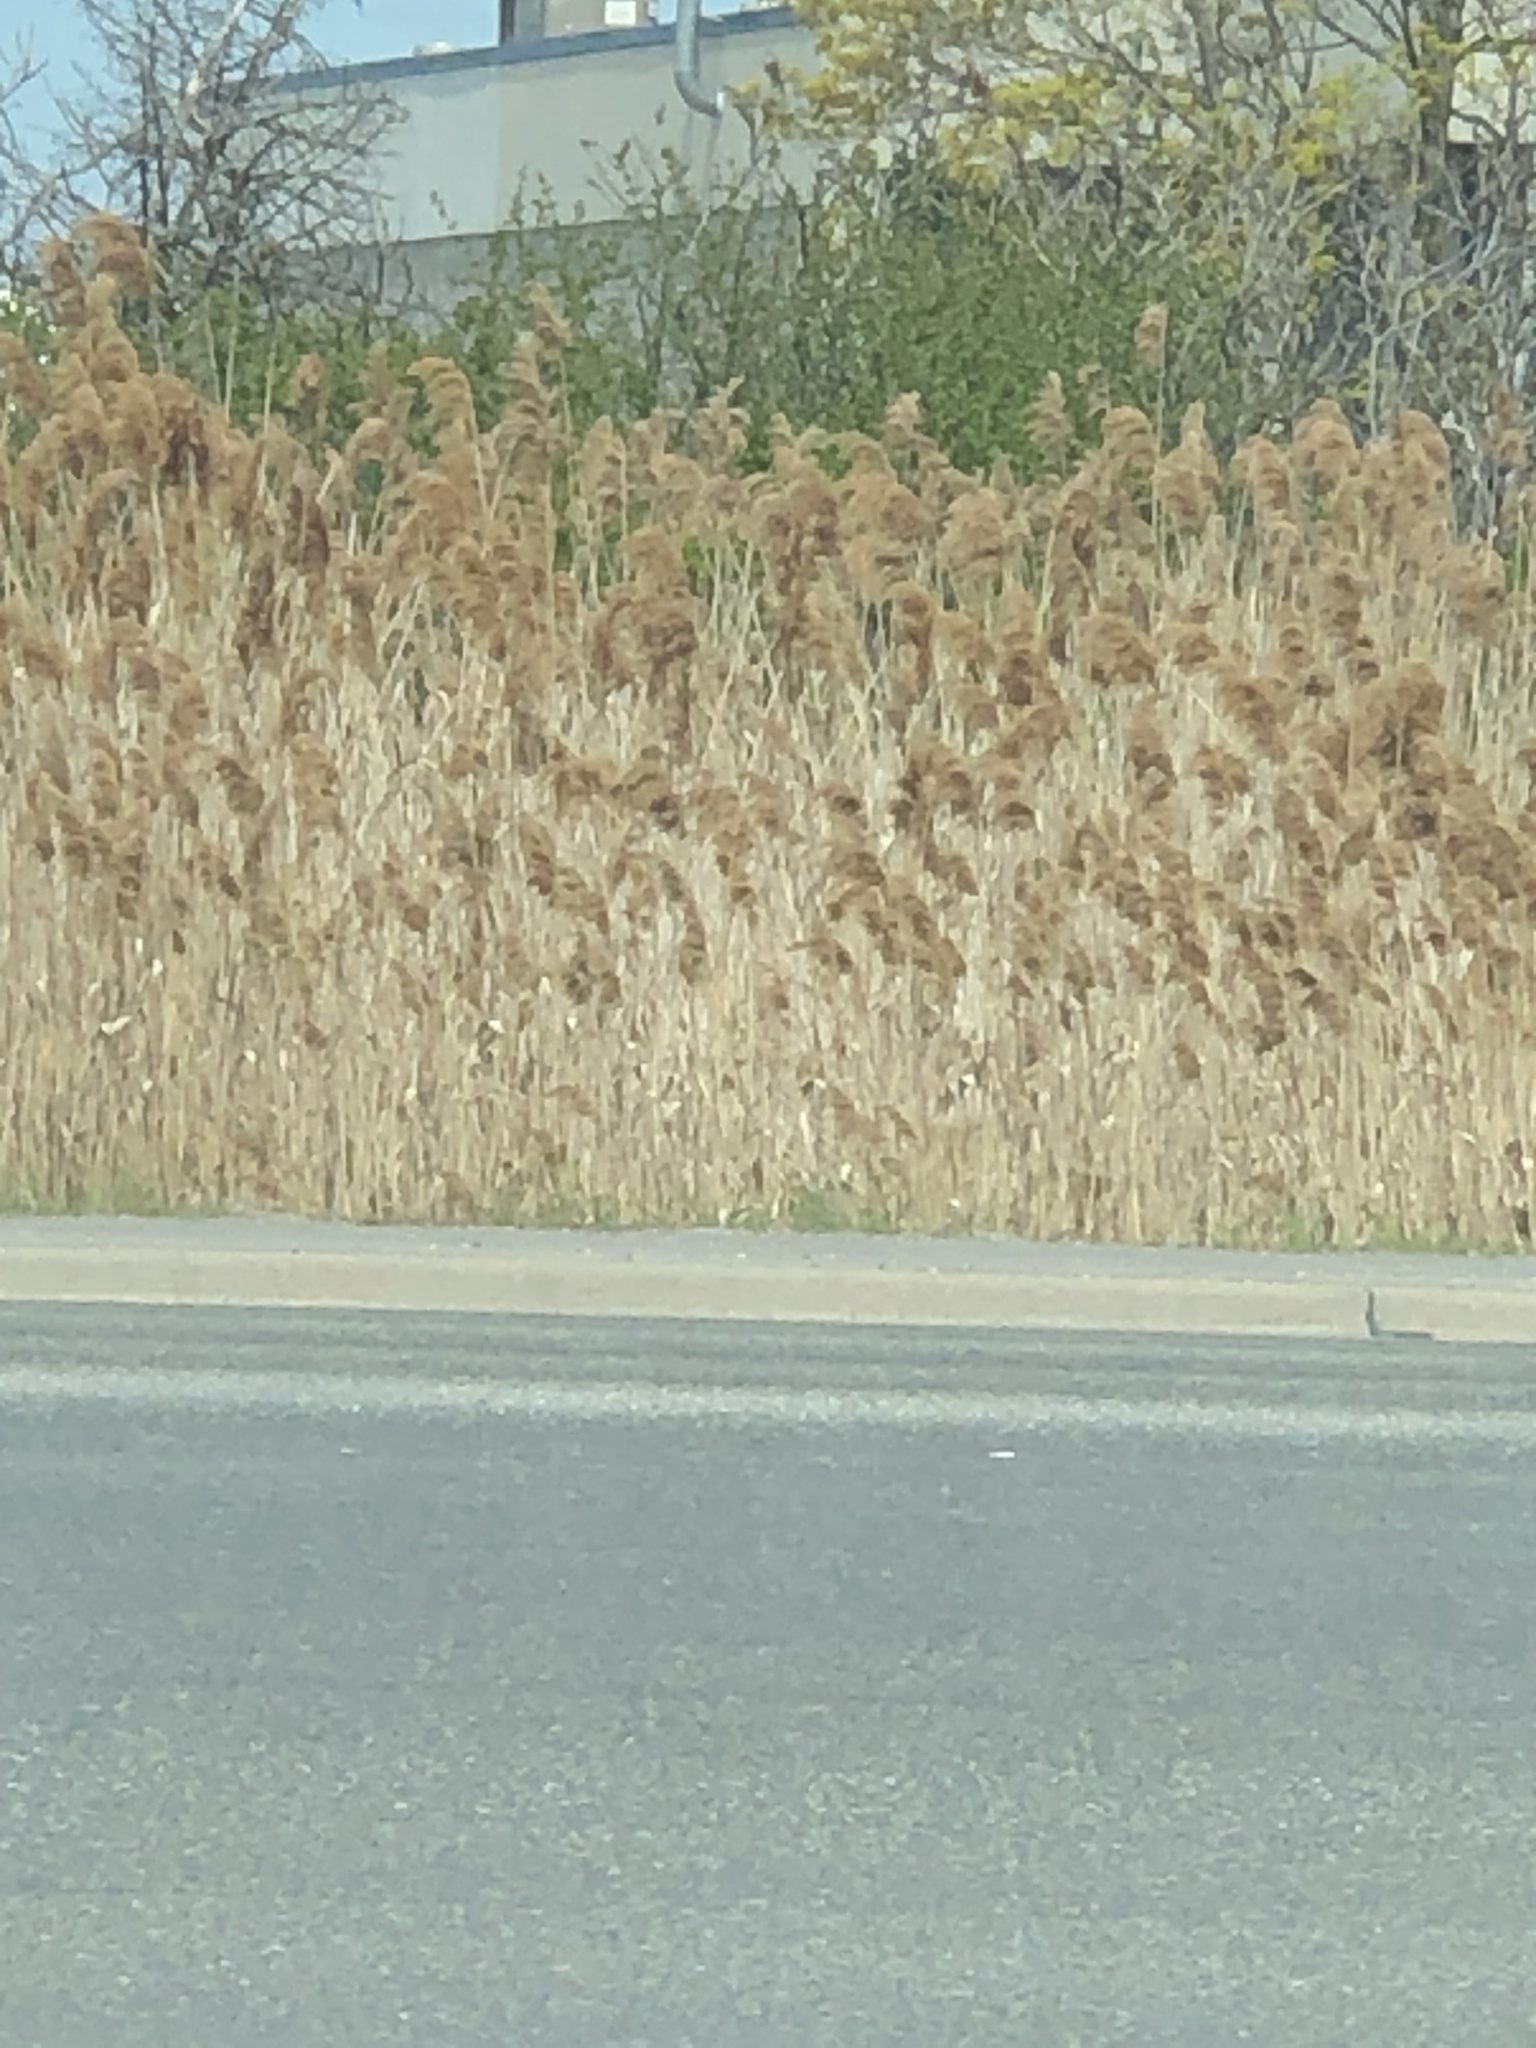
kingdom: Plantae
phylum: Tracheophyta
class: Liliopsida
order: Poales
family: Poaceae
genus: Phragmites
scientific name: Phragmites australis
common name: Common reed
